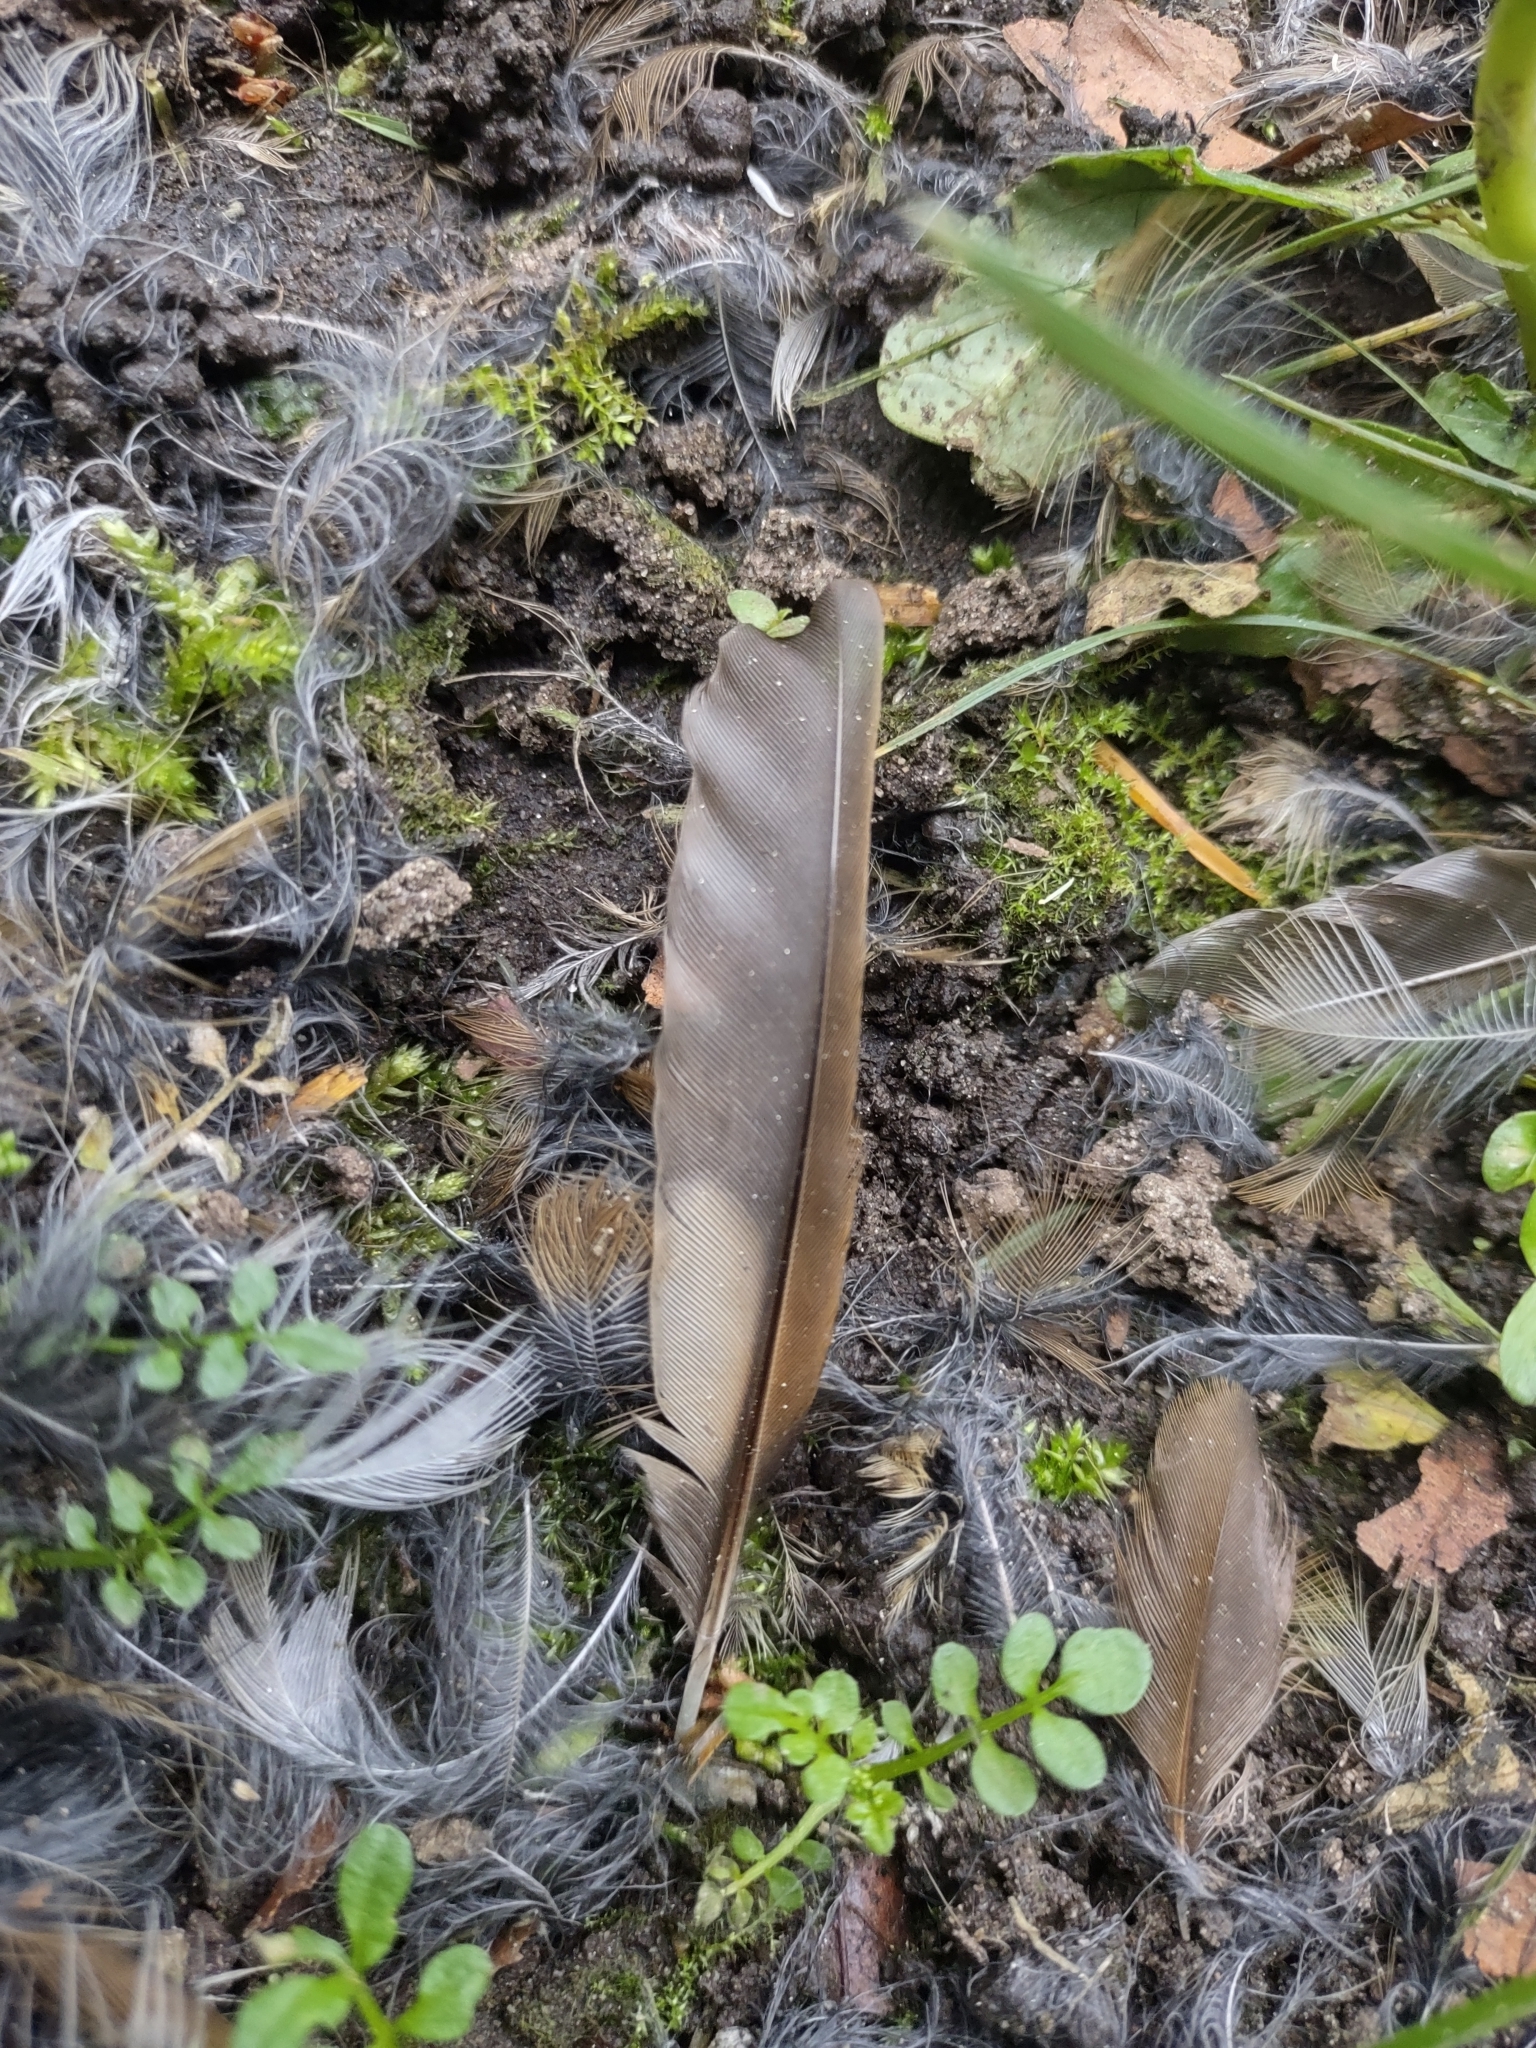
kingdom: Animalia
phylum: Chordata
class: Aves
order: Passeriformes
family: Turdidae
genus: Catharus
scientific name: Catharus guttatus
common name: Hermit thrush
